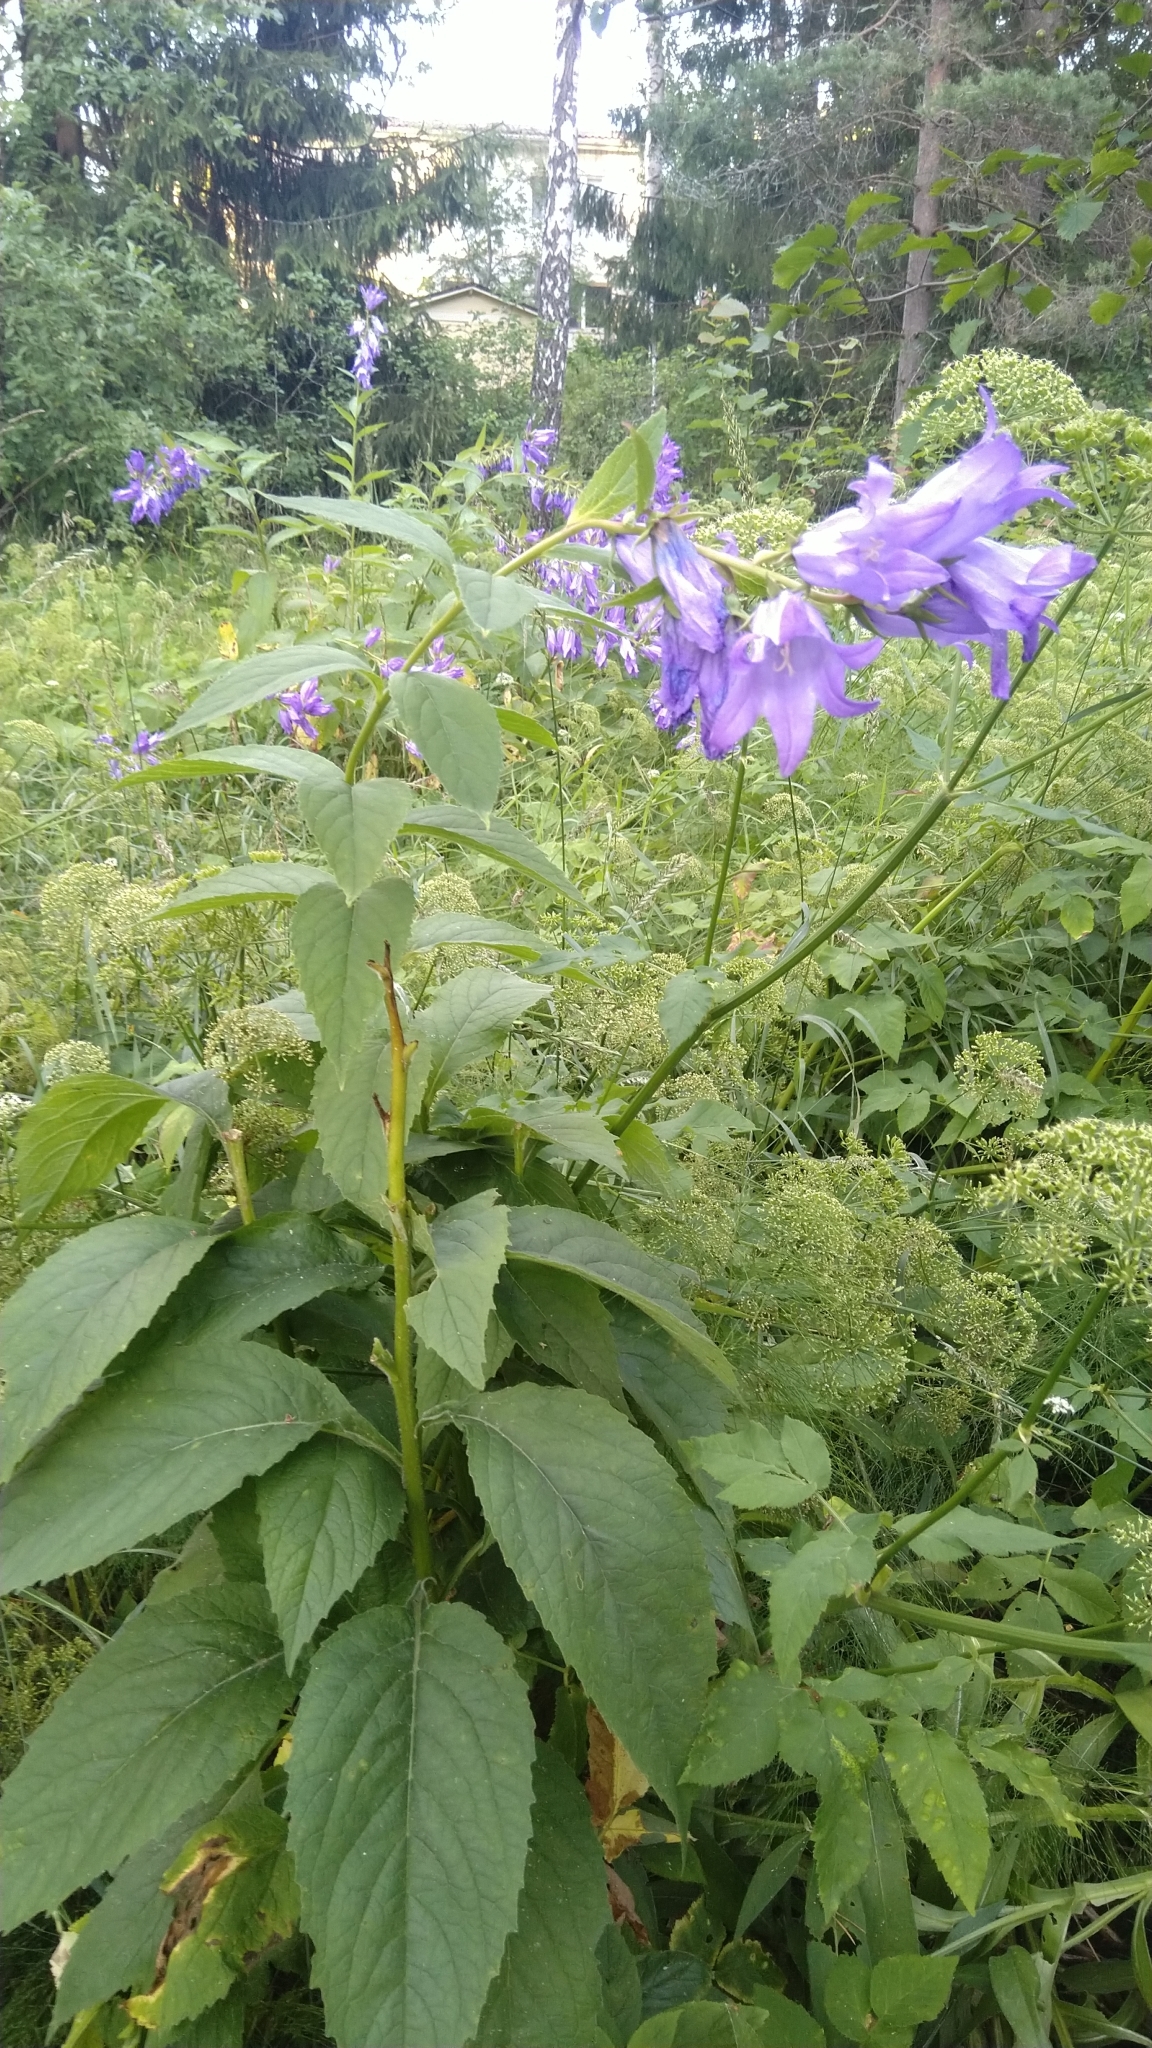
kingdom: Plantae
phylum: Tracheophyta
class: Magnoliopsida
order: Asterales
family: Campanulaceae
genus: Campanula
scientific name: Campanula rapunculoides
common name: Creeping bellflower
